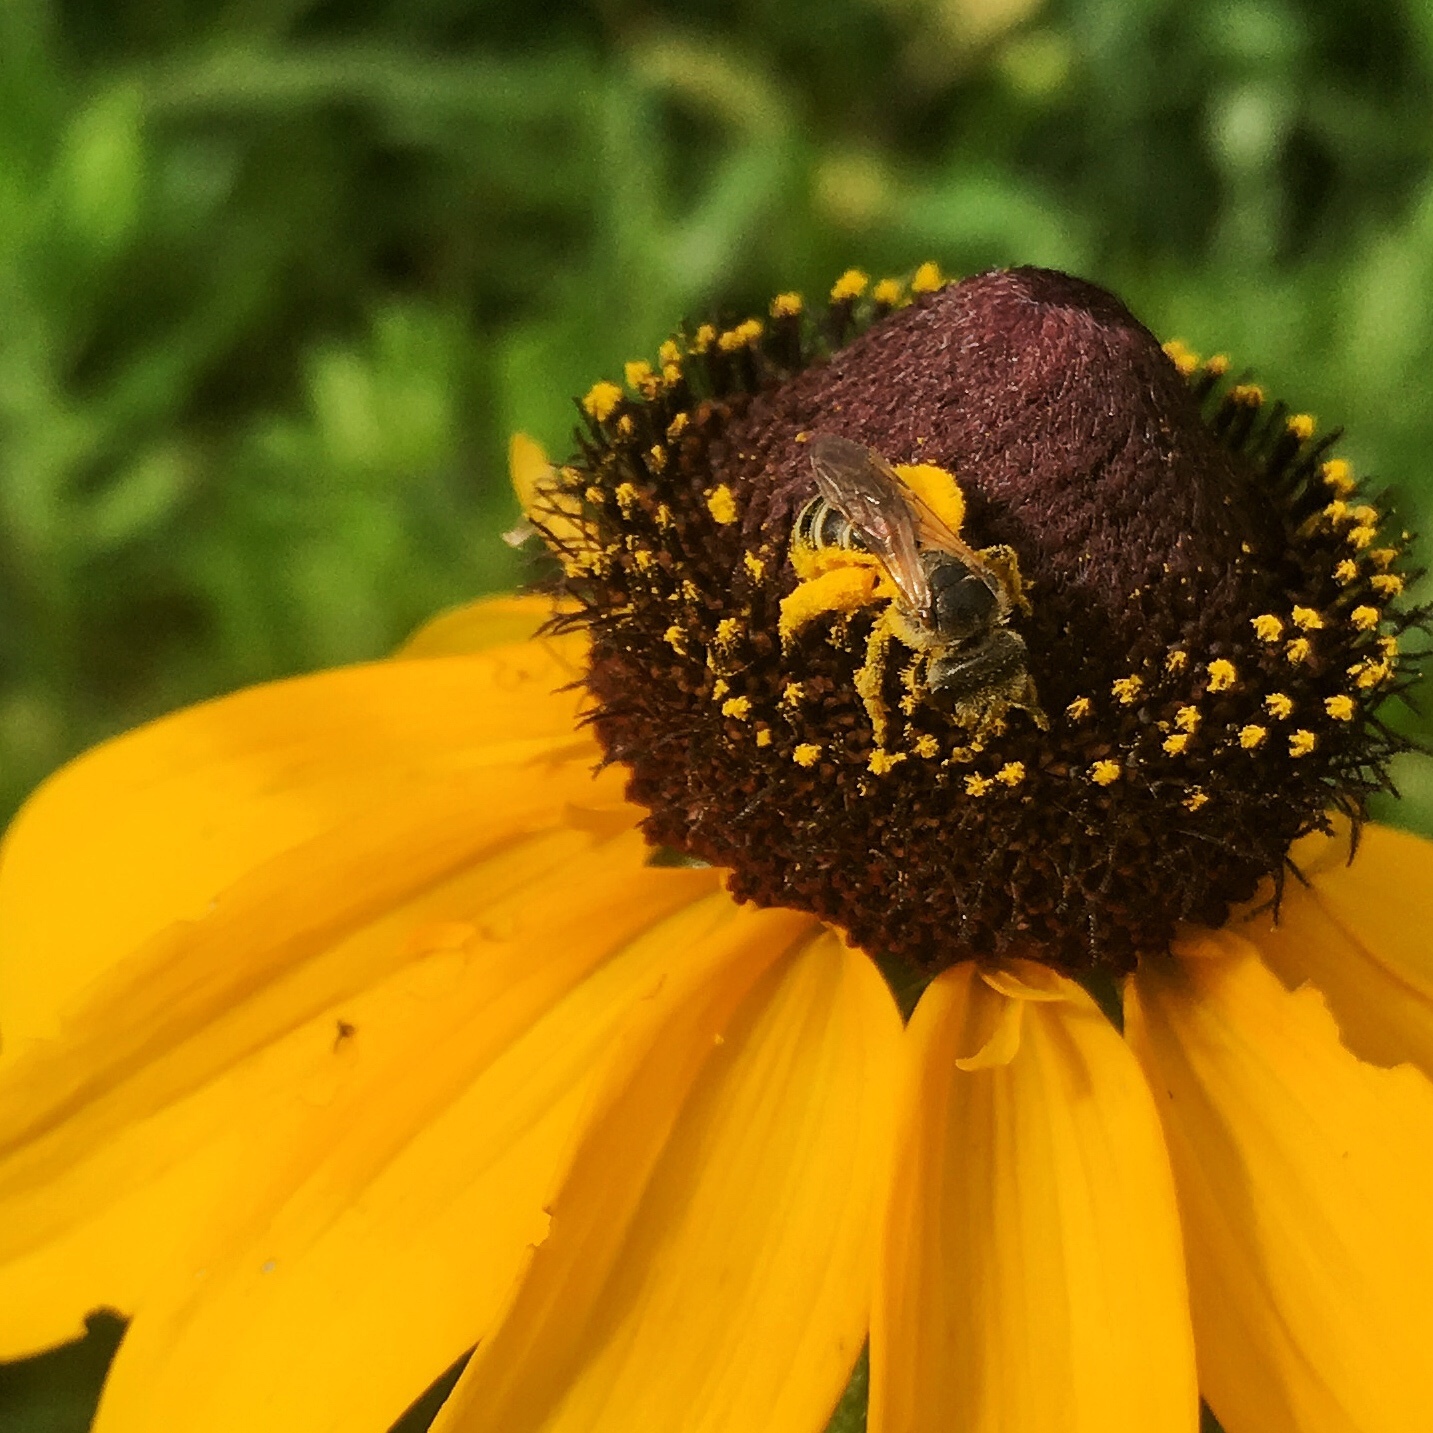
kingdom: Animalia
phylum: Arthropoda
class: Insecta
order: Hymenoptera
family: Halictidae
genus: Halictus
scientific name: Halictus ligatus
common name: Ligated furrow bee
